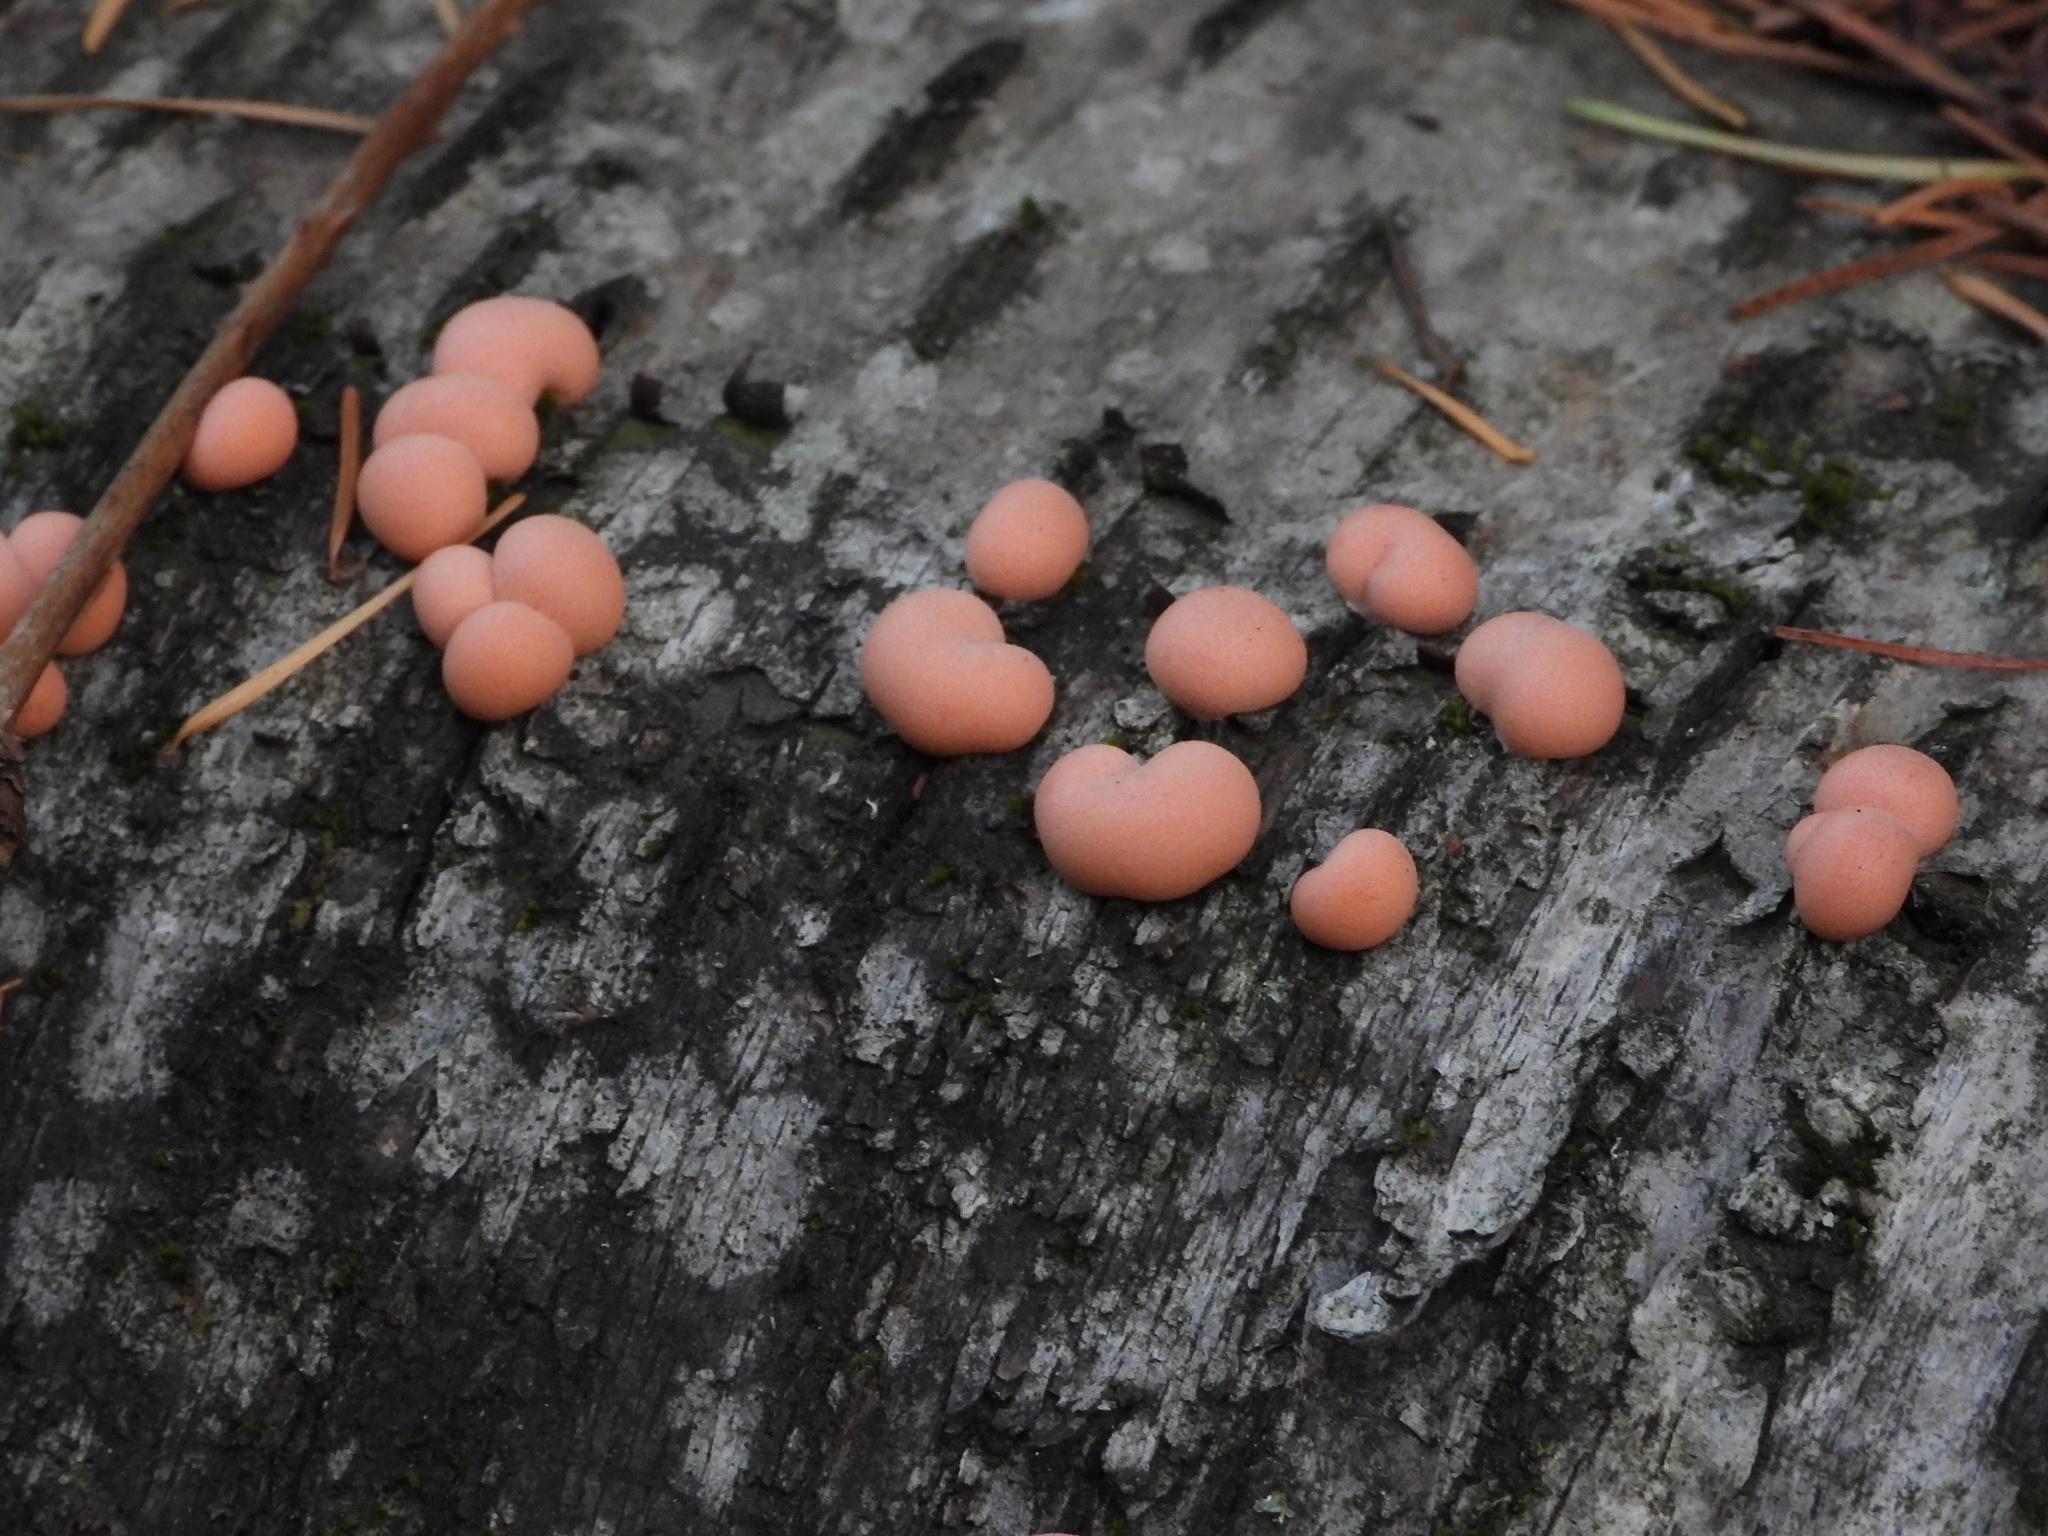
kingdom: Protozoa
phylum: Mycetozoa
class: Myxomycetes
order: Cribrariales
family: Tubiferaceae
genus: Lycogala
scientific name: Lycogala epidendrum
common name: Wolf's milk
